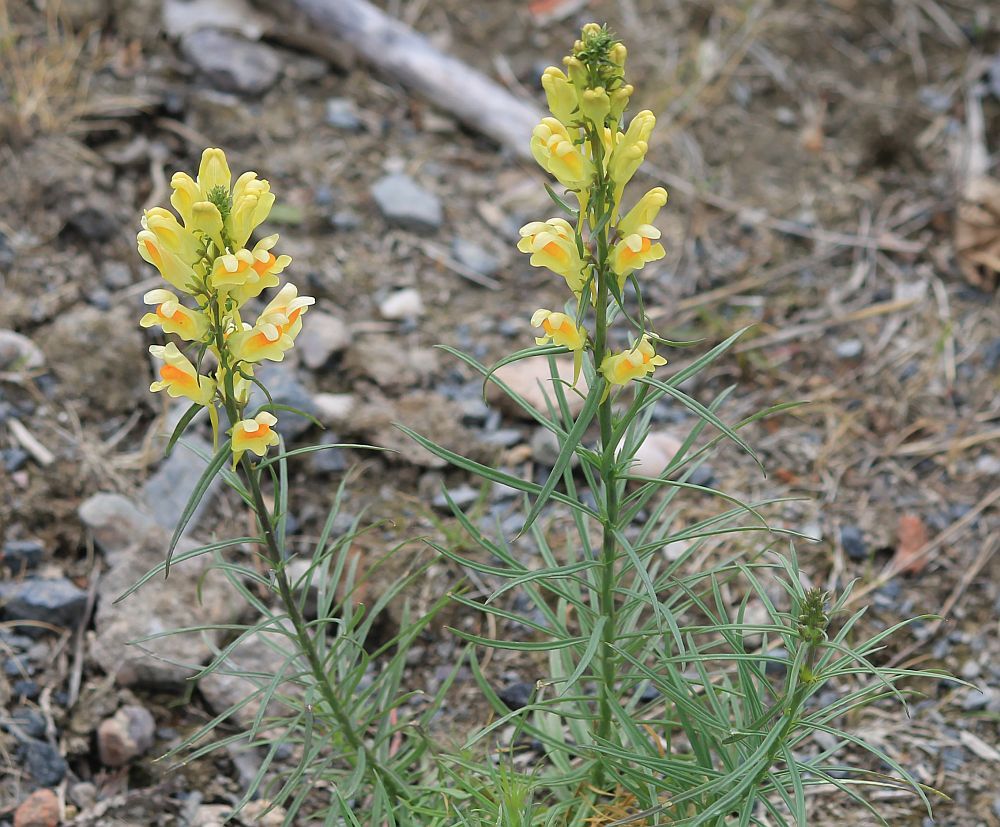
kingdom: Plantae
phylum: Tracheophyta
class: Magnoliopsida
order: Lamiales
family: Plantaginaceae
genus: Linaria
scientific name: Linaria vulgaris
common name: Butter and eggs
